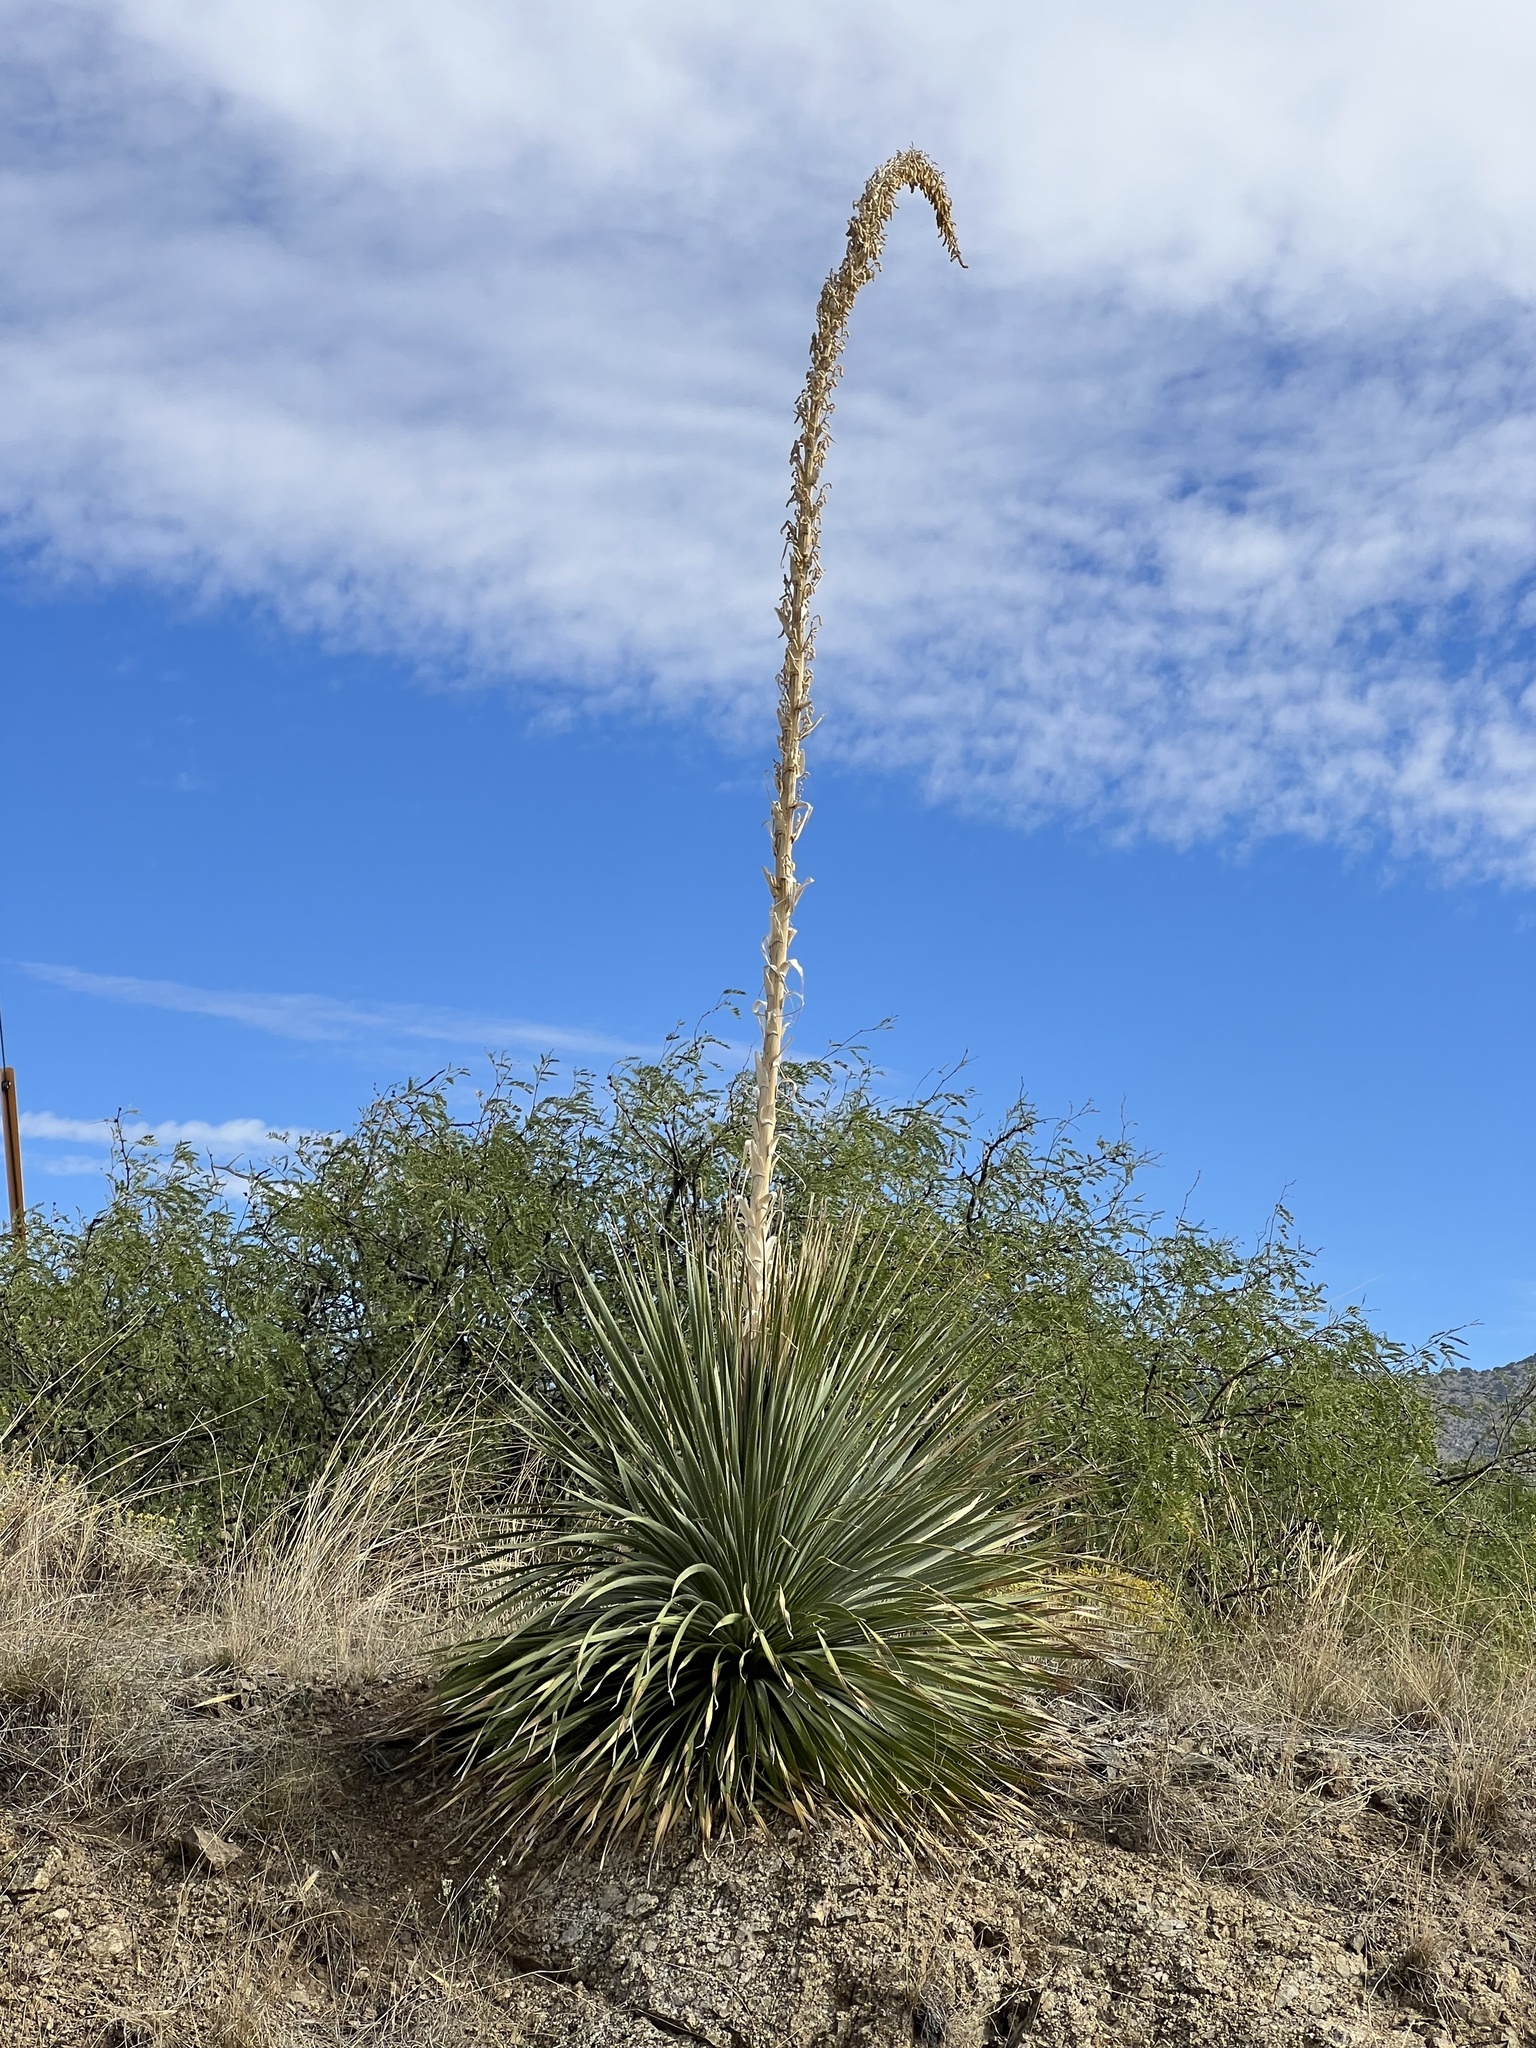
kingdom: Plantae
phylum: Tracheophyta
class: Liliopsida
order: Asparagales
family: Asparagaceae
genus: Dasylirion
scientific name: Dasylirion wheeleri
